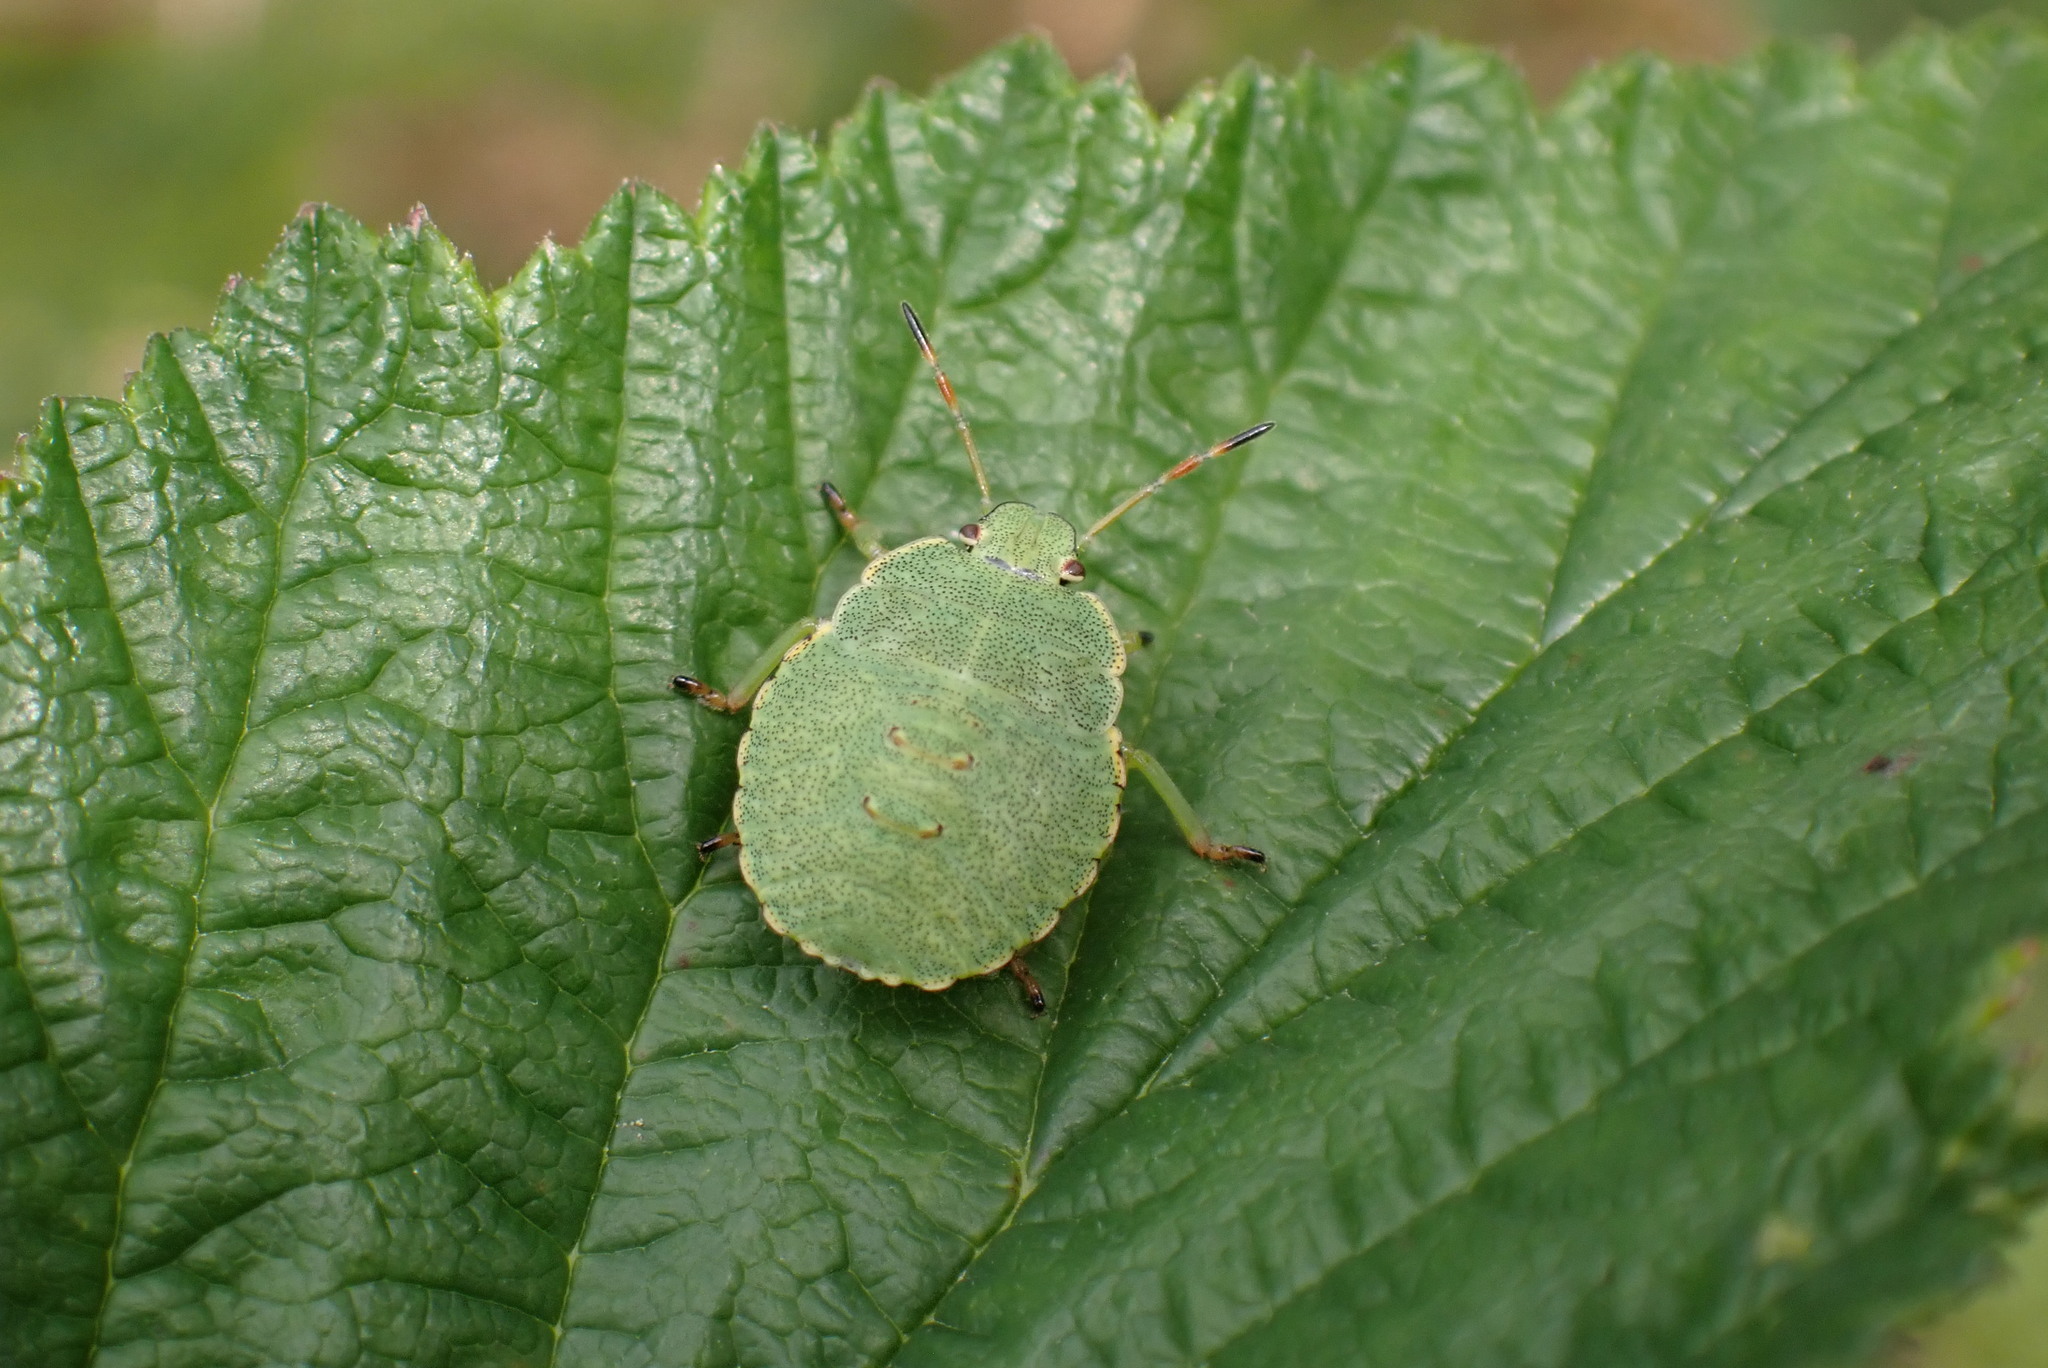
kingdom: Animalia
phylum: Arthropoda
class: Insecta
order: Hemiptera
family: Pentatomidae
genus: Palomena
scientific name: Palomena prasina
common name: Green shieldbug
